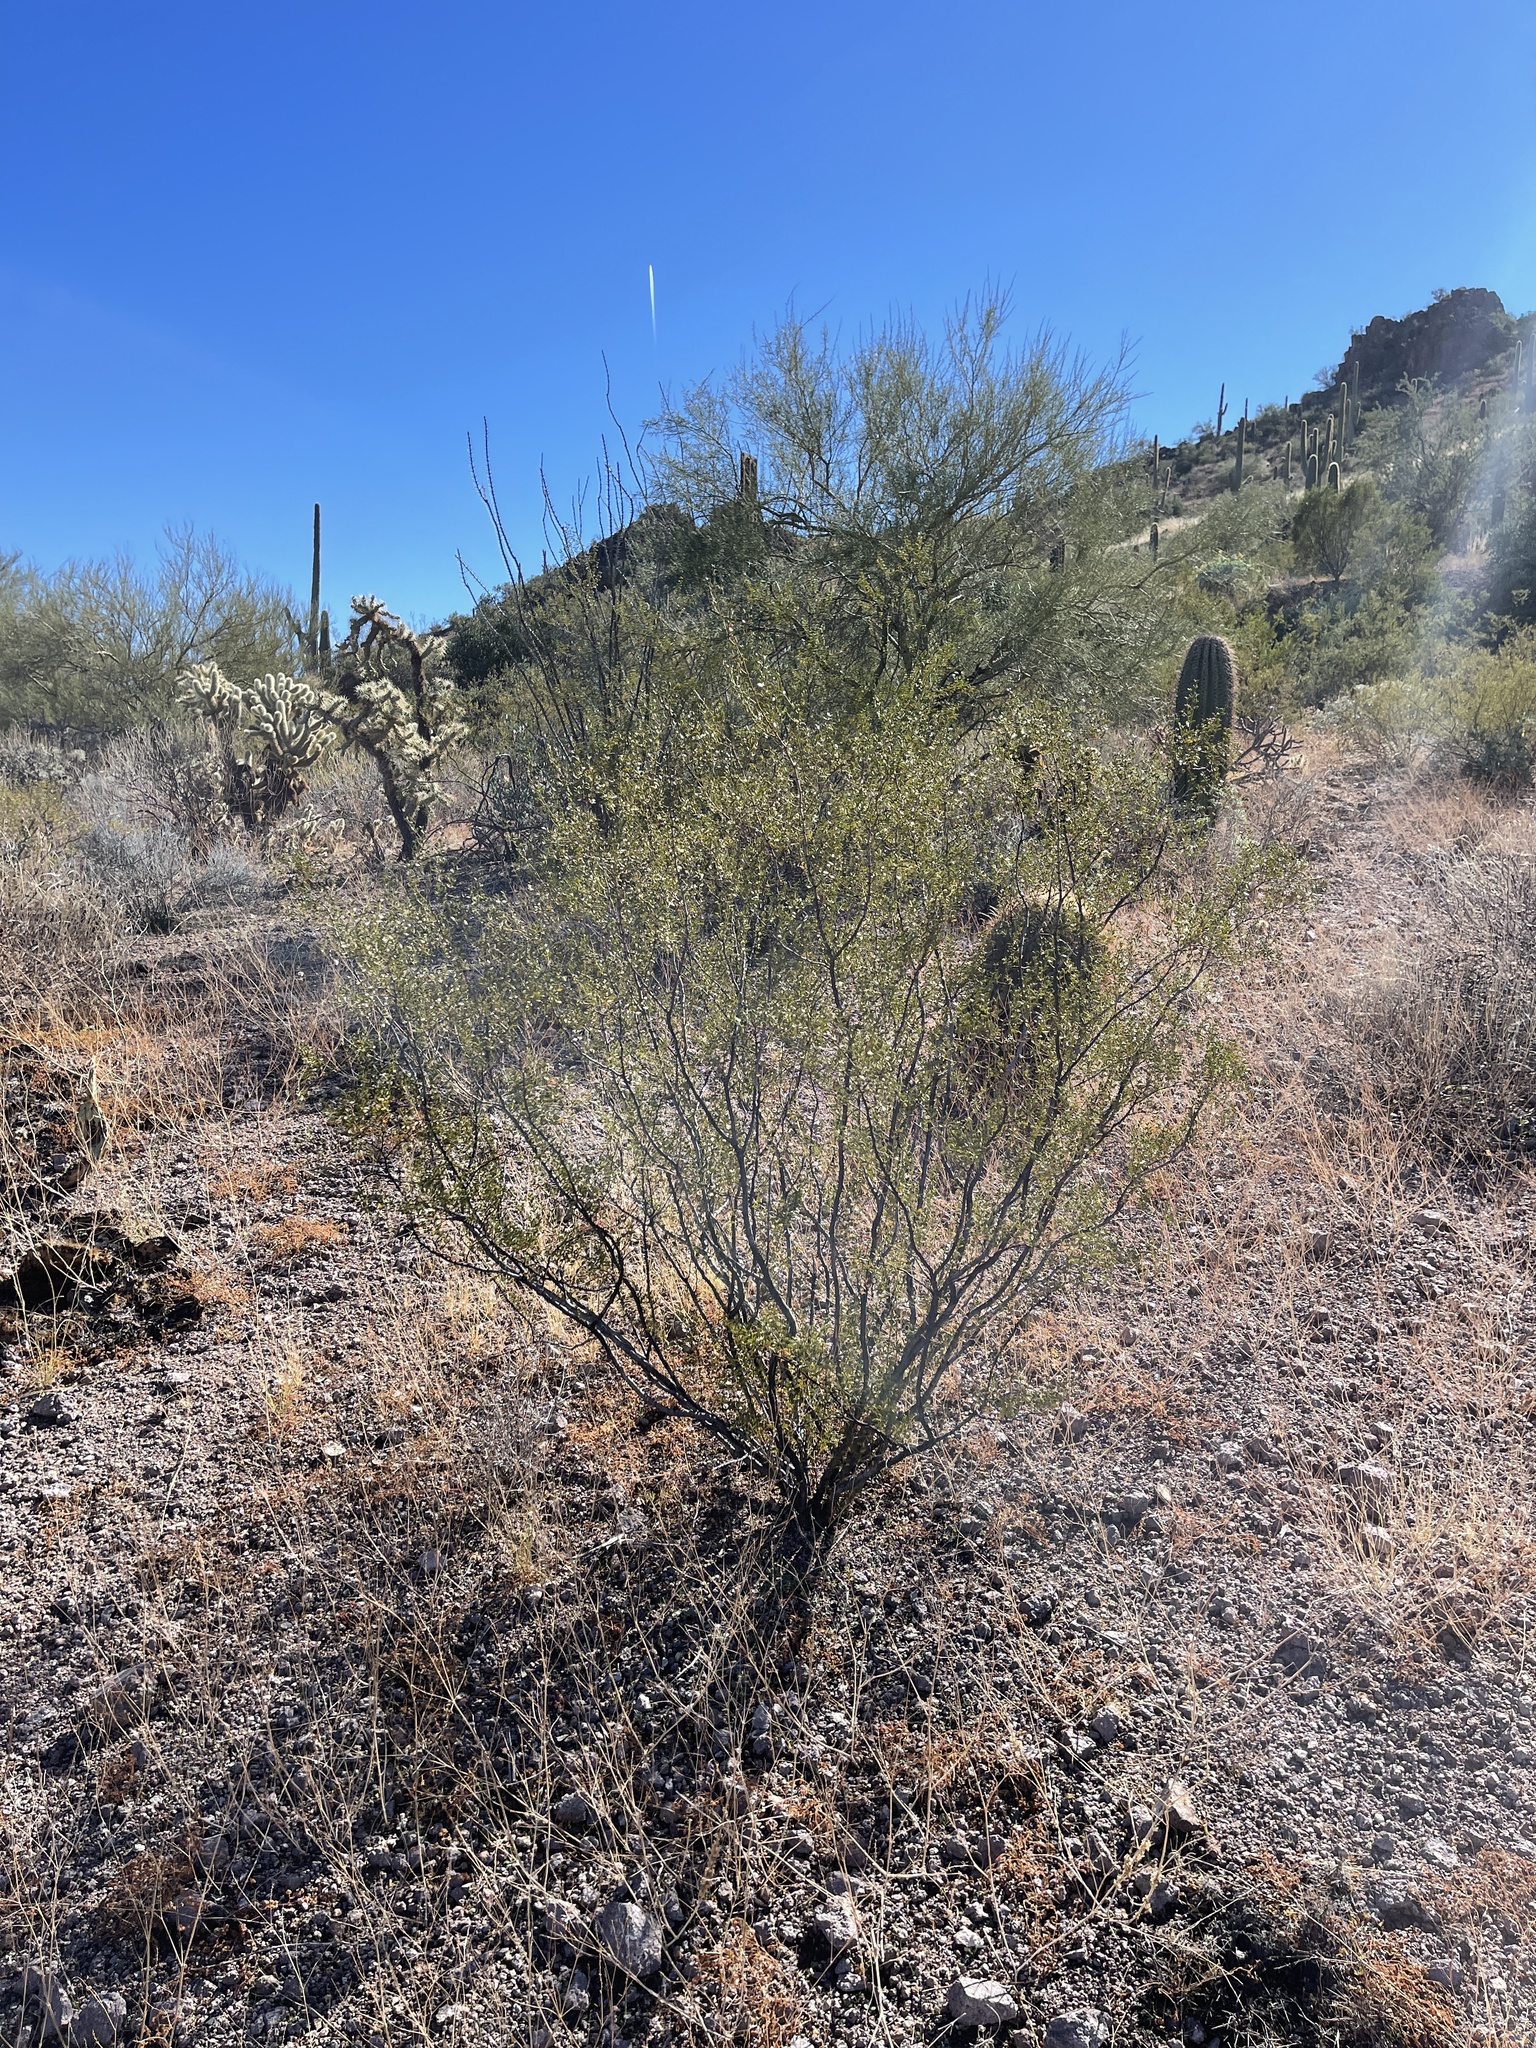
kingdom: Plantae
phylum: Tracheophyta
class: Magnoliopsida
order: Zygophyllales
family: Zygophyllaceae
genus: Larrea
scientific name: Larrea tridentata
